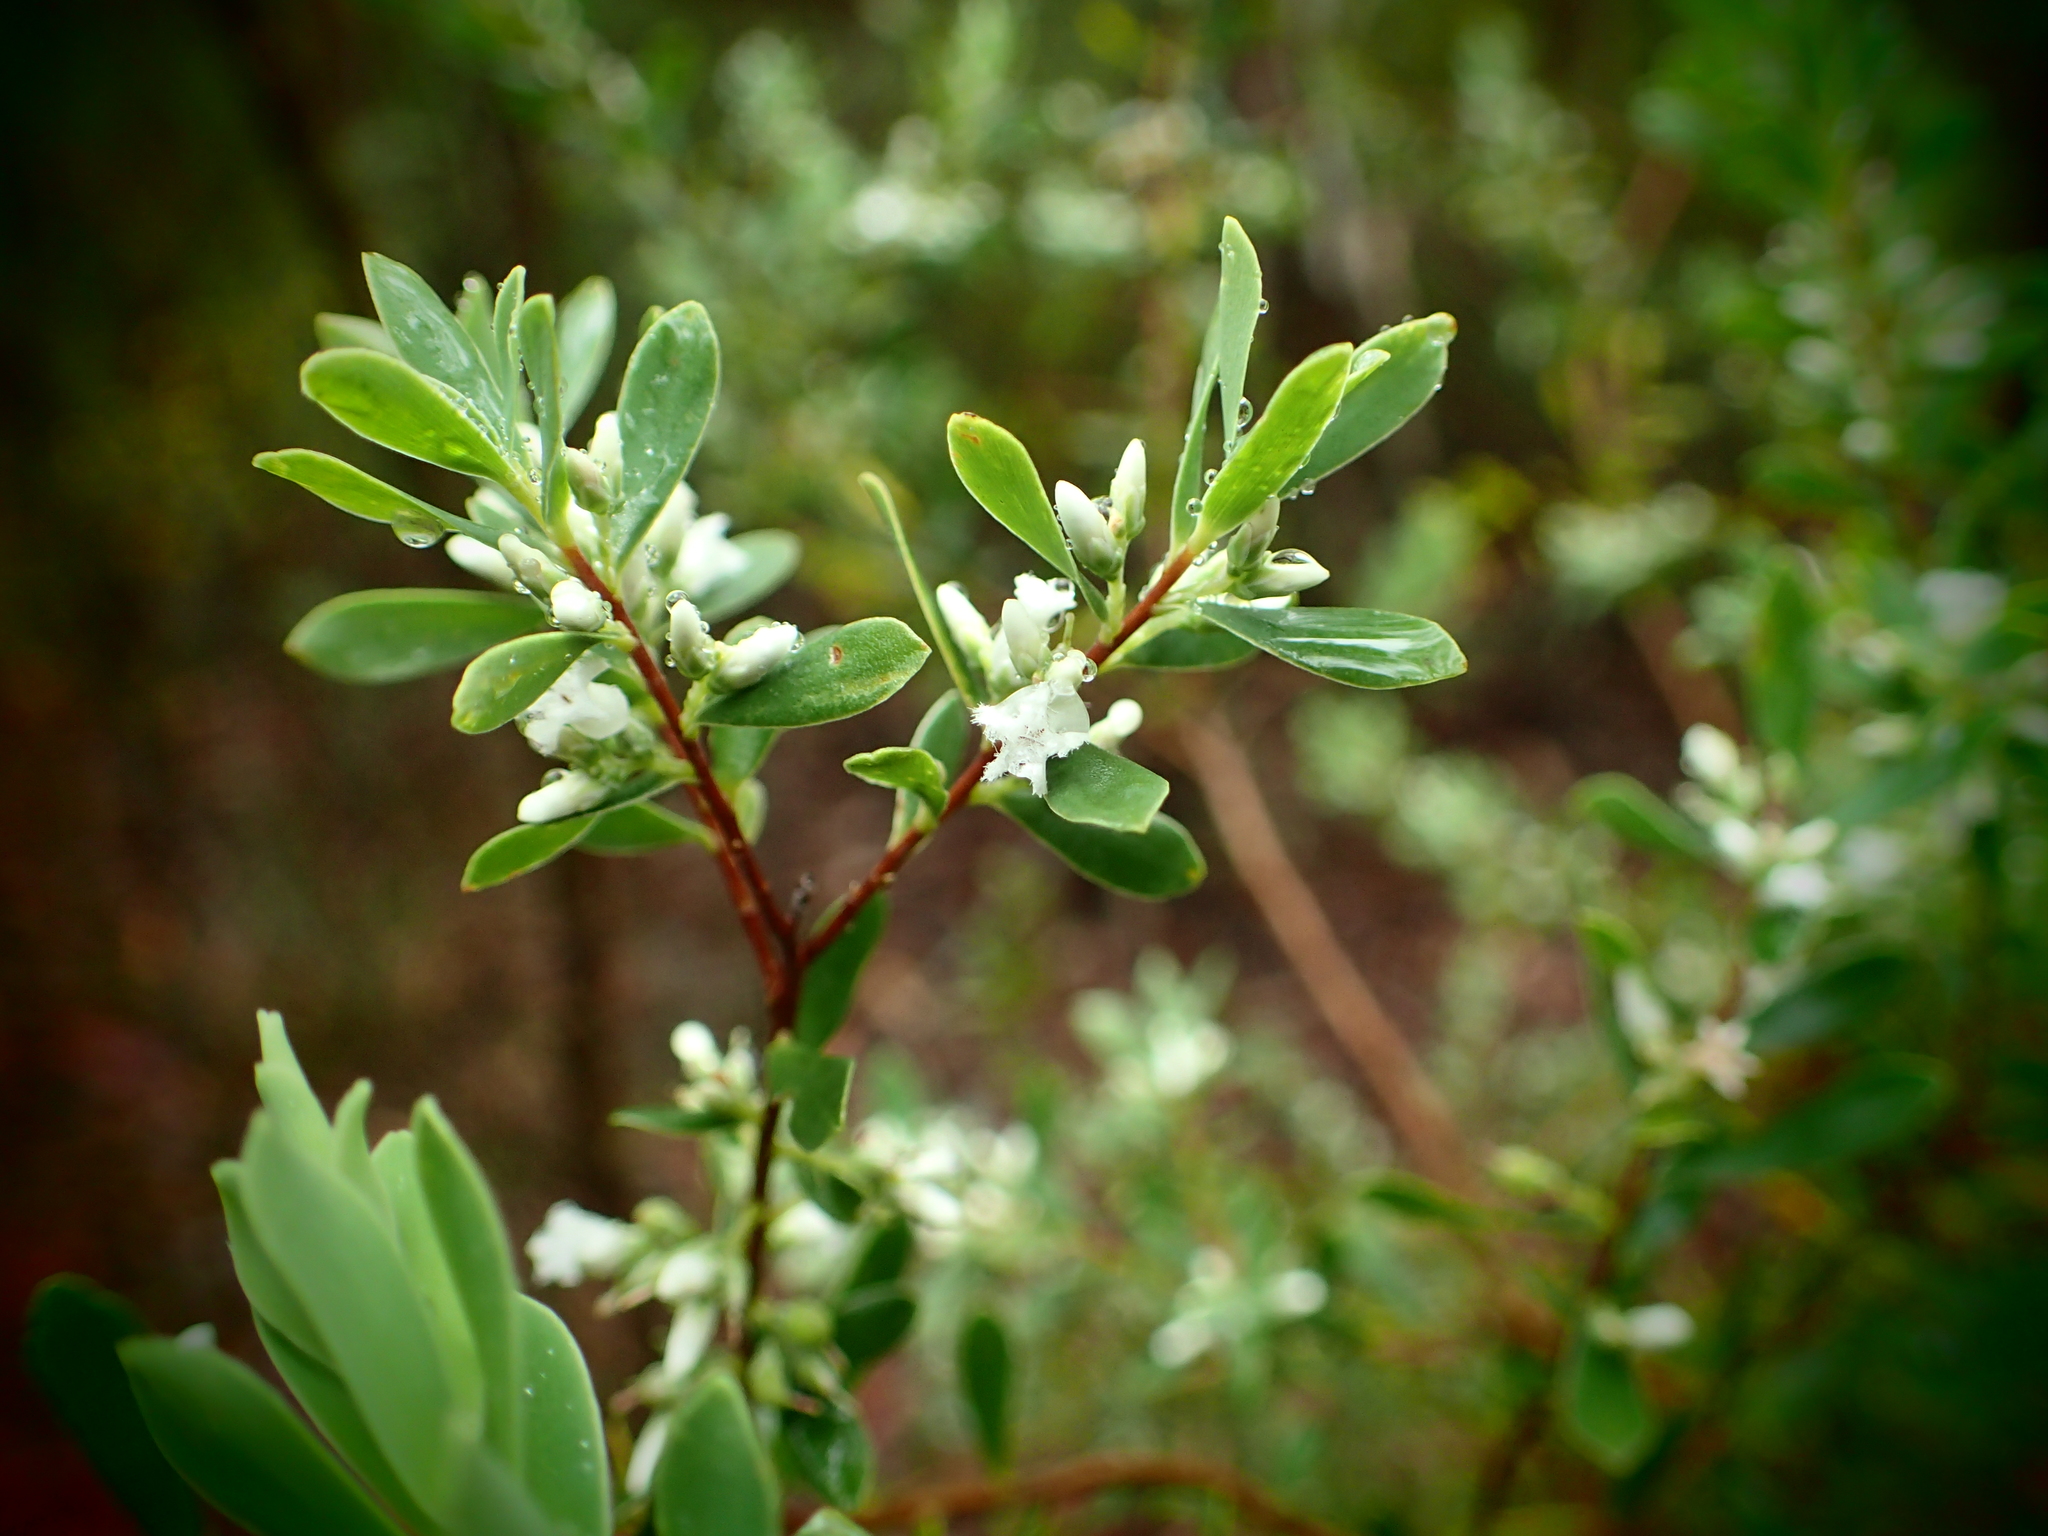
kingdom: Plantae
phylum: Tracheophyta
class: Magnoliopsida
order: Ericales
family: Ericaceae
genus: Styphelia
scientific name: Styphelia mutica
